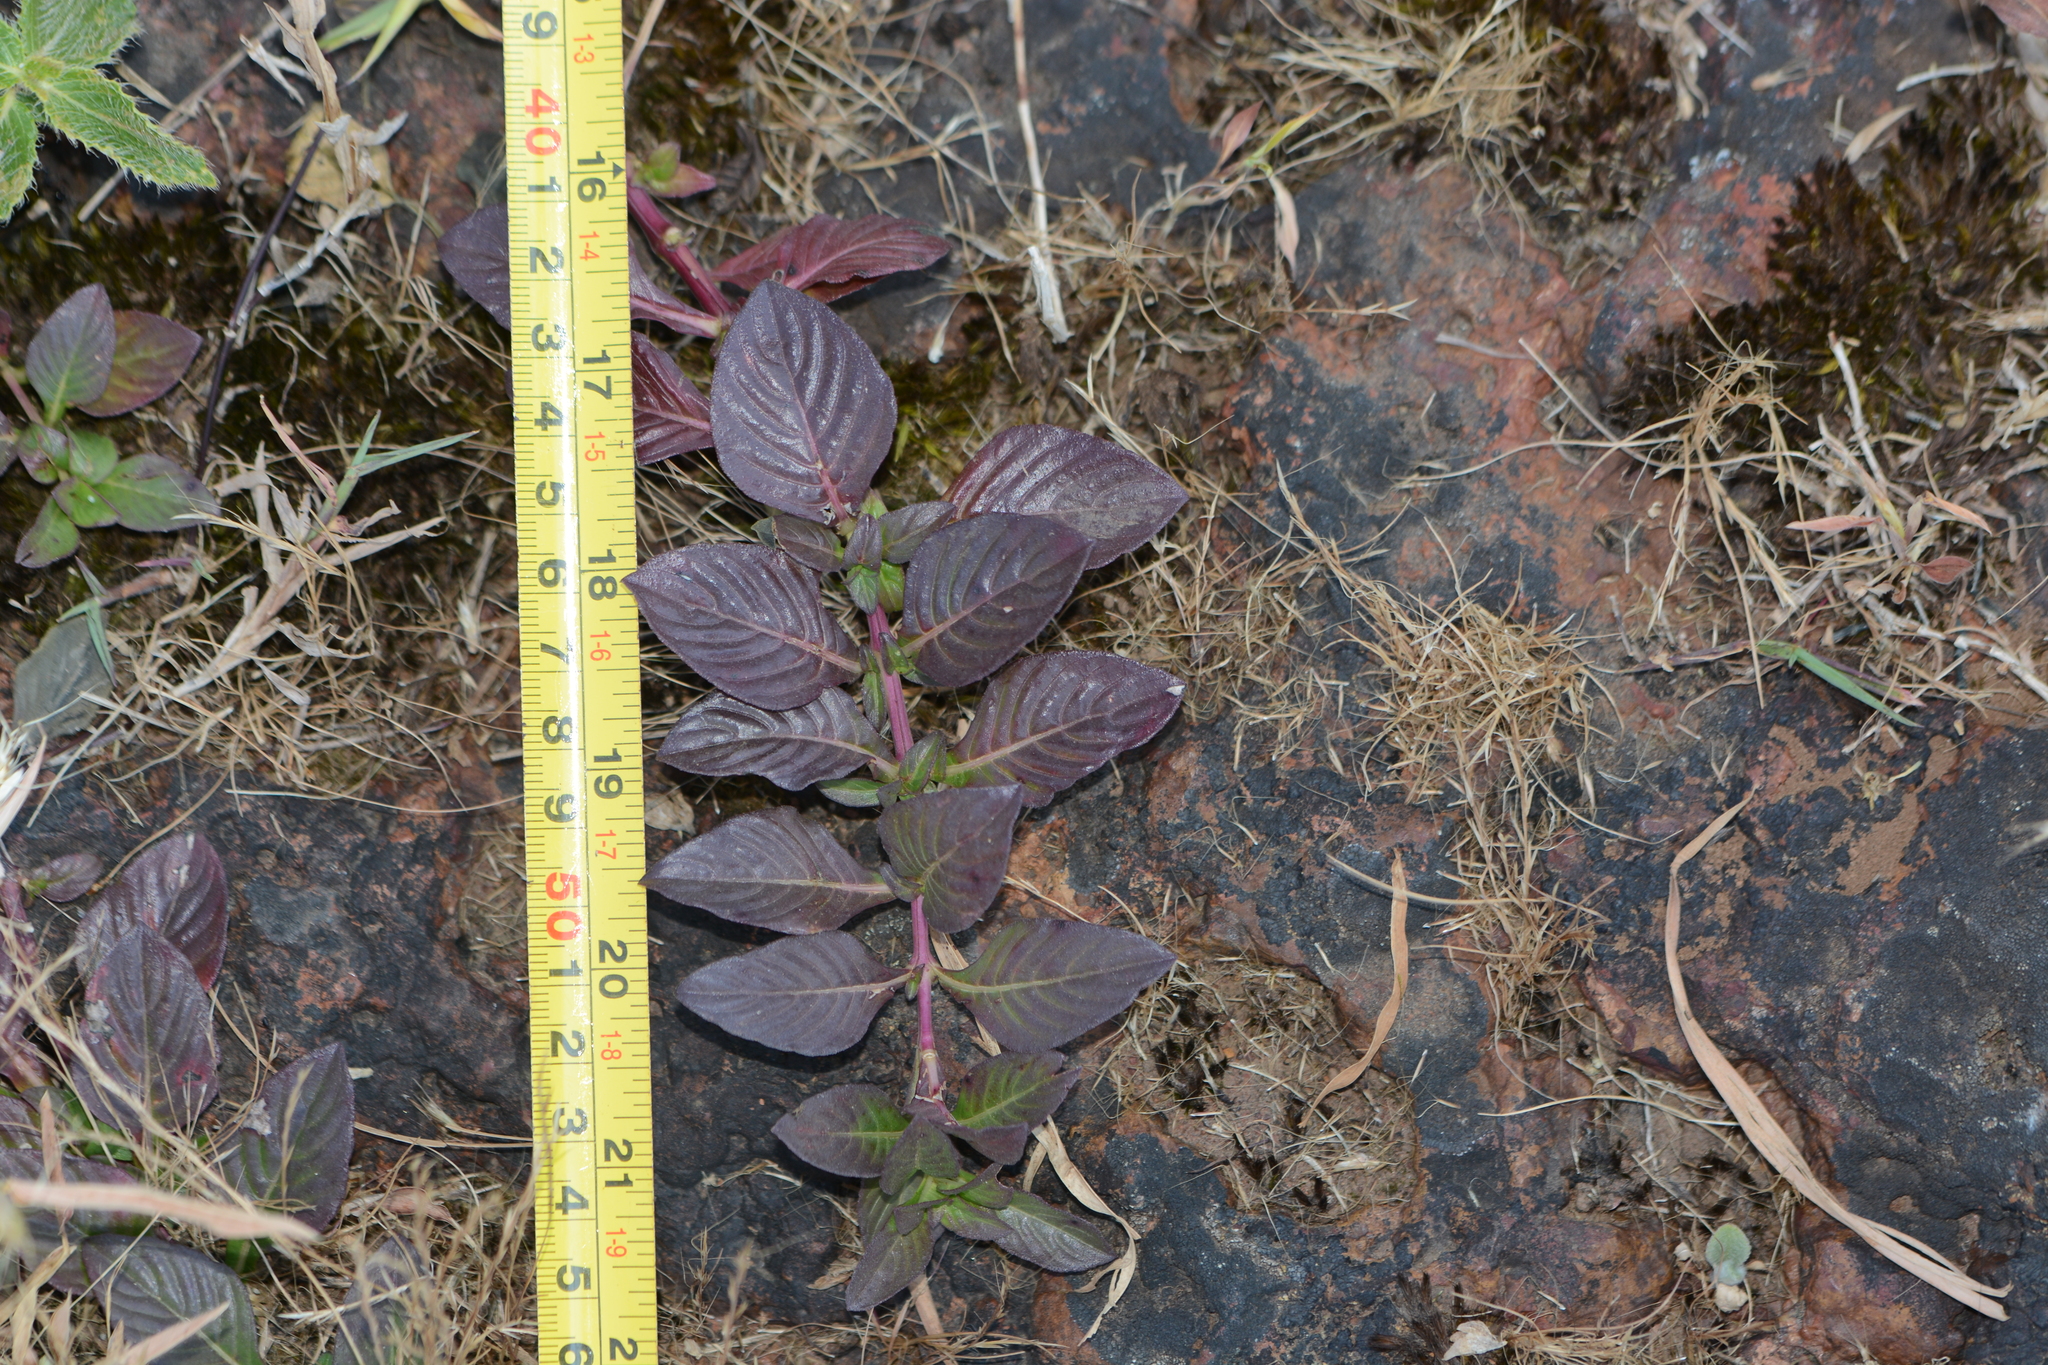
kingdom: Plantae
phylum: Tracheophyta
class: Magnoliopsida
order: Lamiales
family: Acanthaceae
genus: Lepidagathis
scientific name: Lepidagathis
